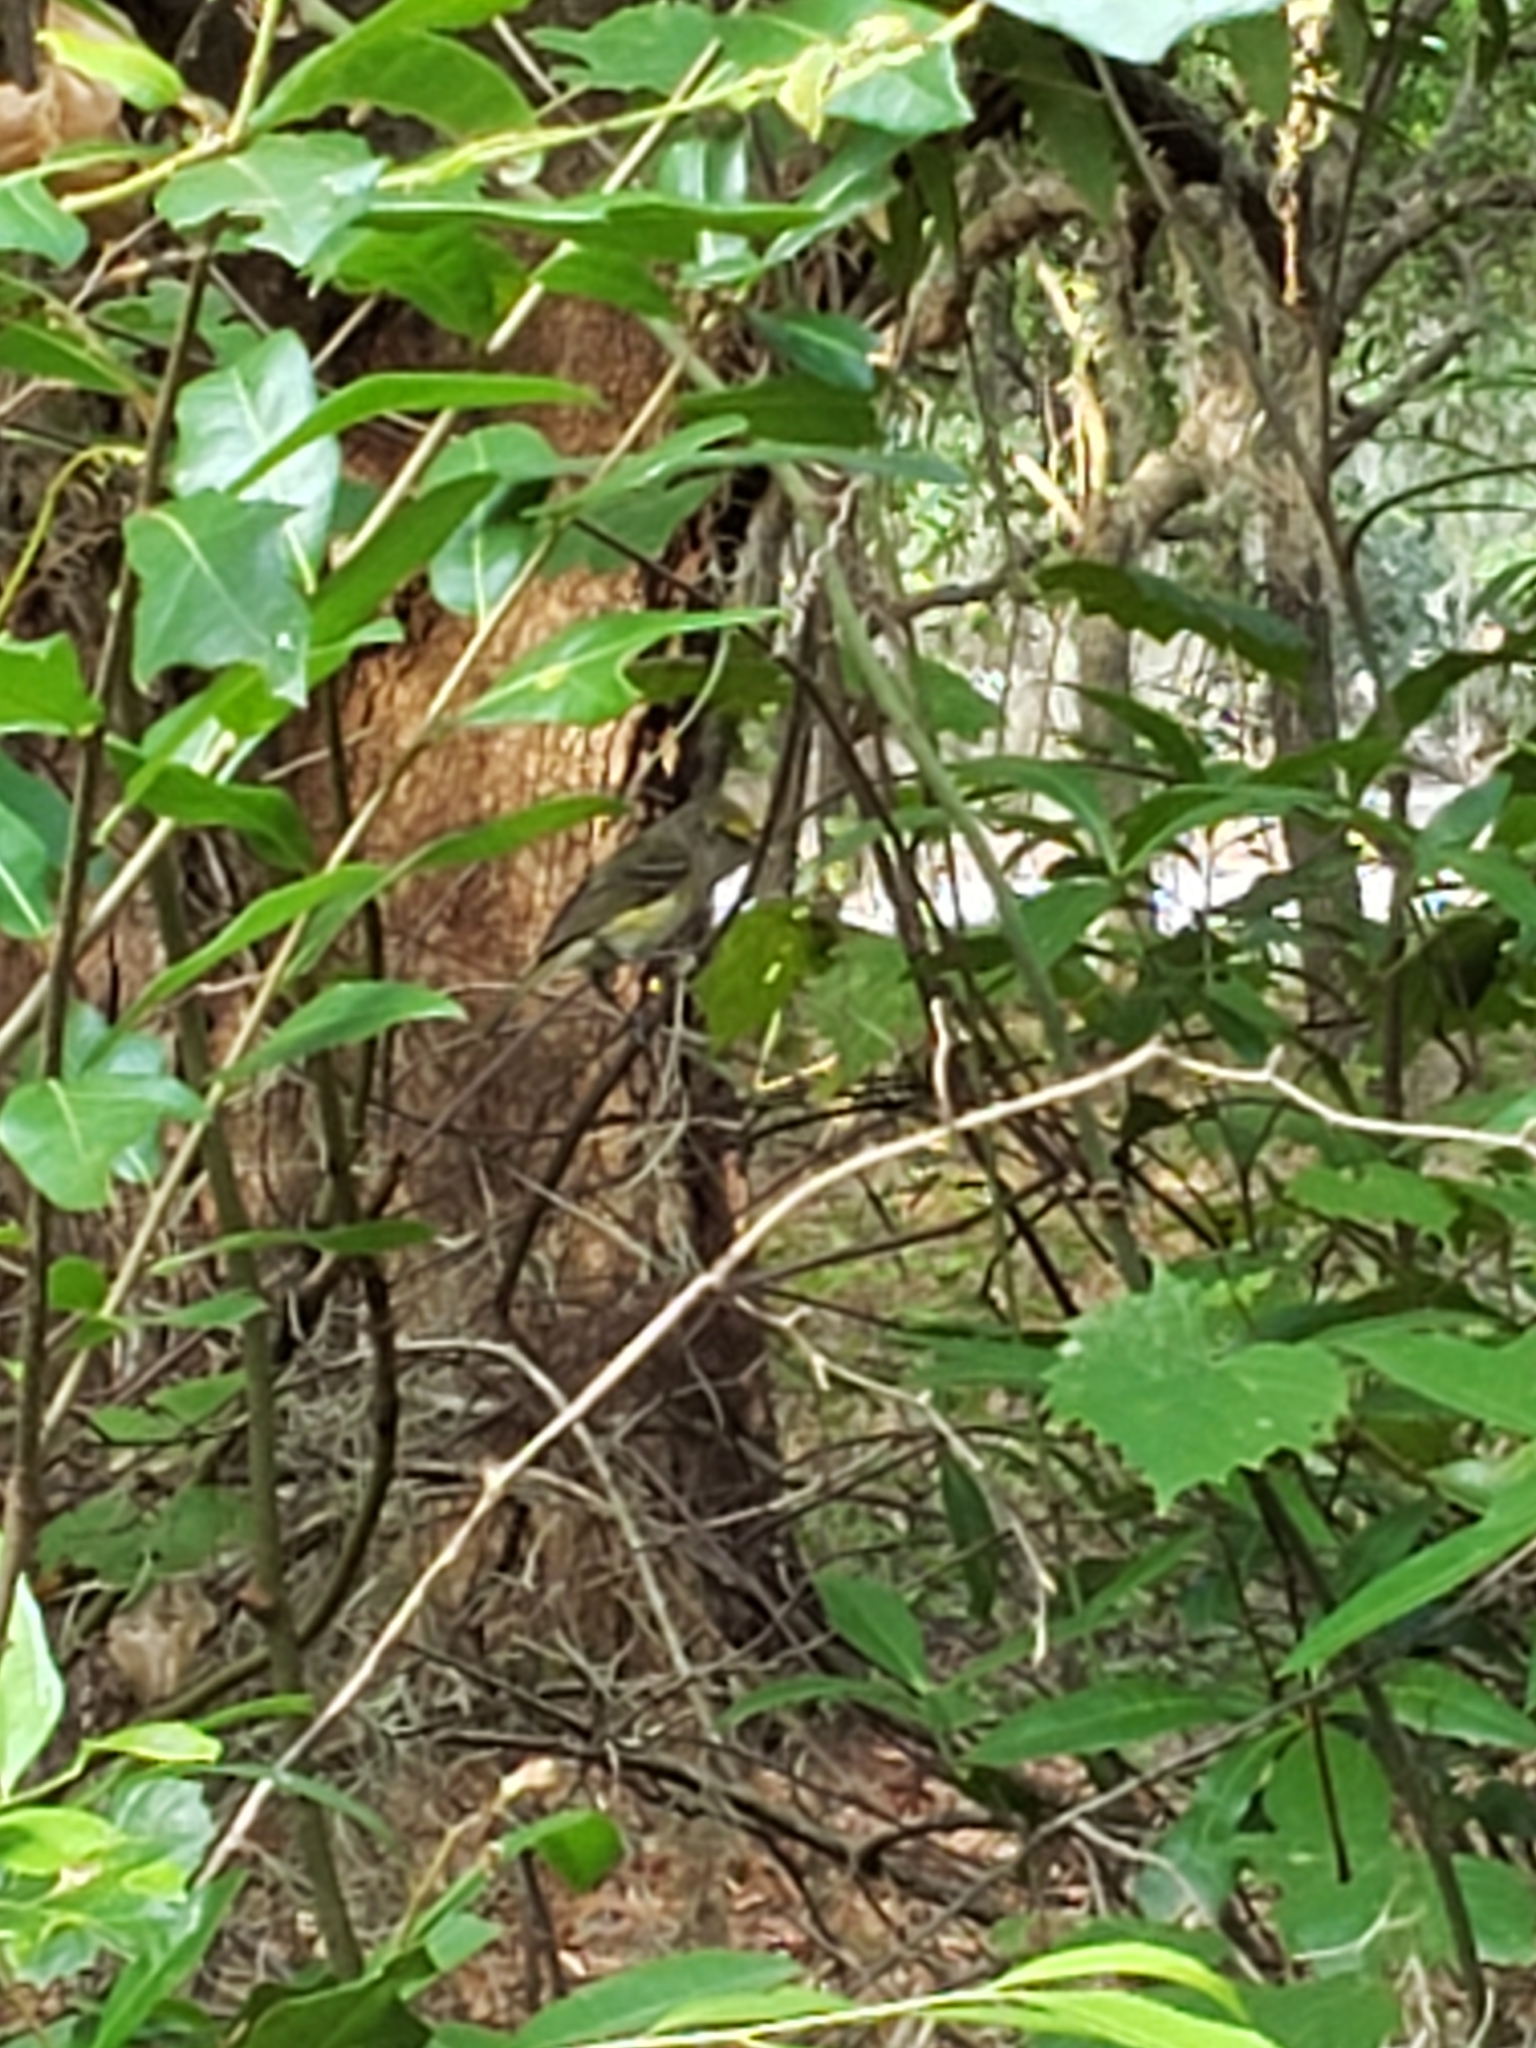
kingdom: Animalia
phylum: Chordata
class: Aves
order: Passeriformes
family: Vireonidae
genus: Vireo
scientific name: Vireo griseus
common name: White-eyed vireo
